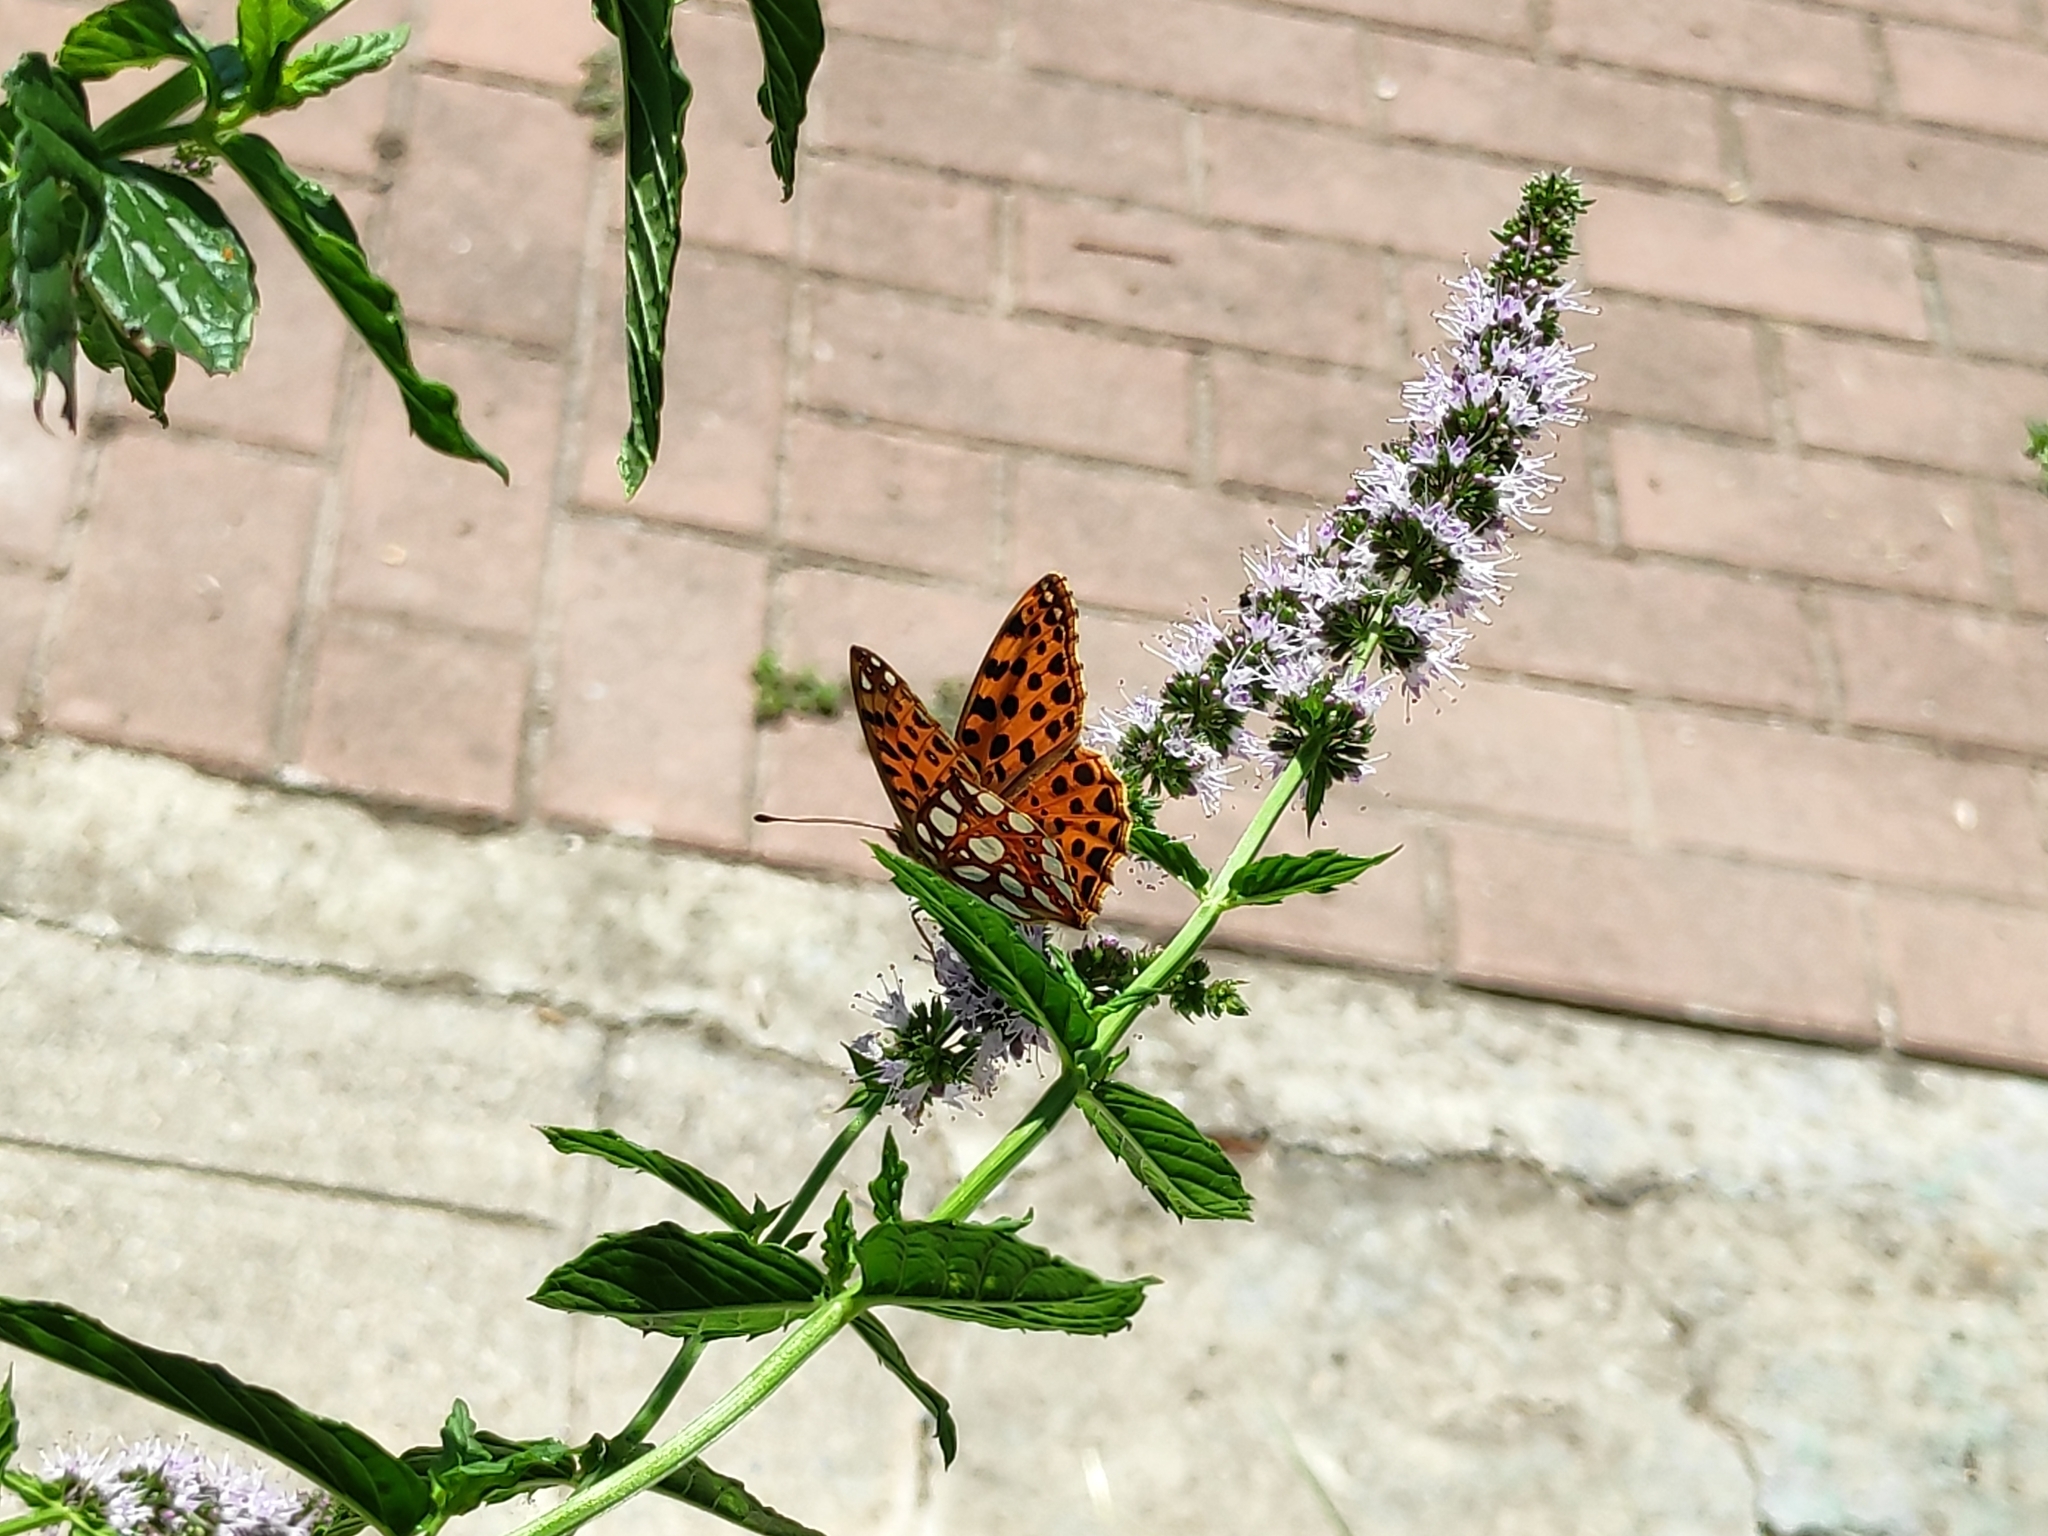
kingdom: Animalia
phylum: Arthropoda
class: Insecta
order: Lepidoptera
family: Nymphalidae
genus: Issoria
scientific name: Issoria lathonia
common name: Queen of spain fritillary
